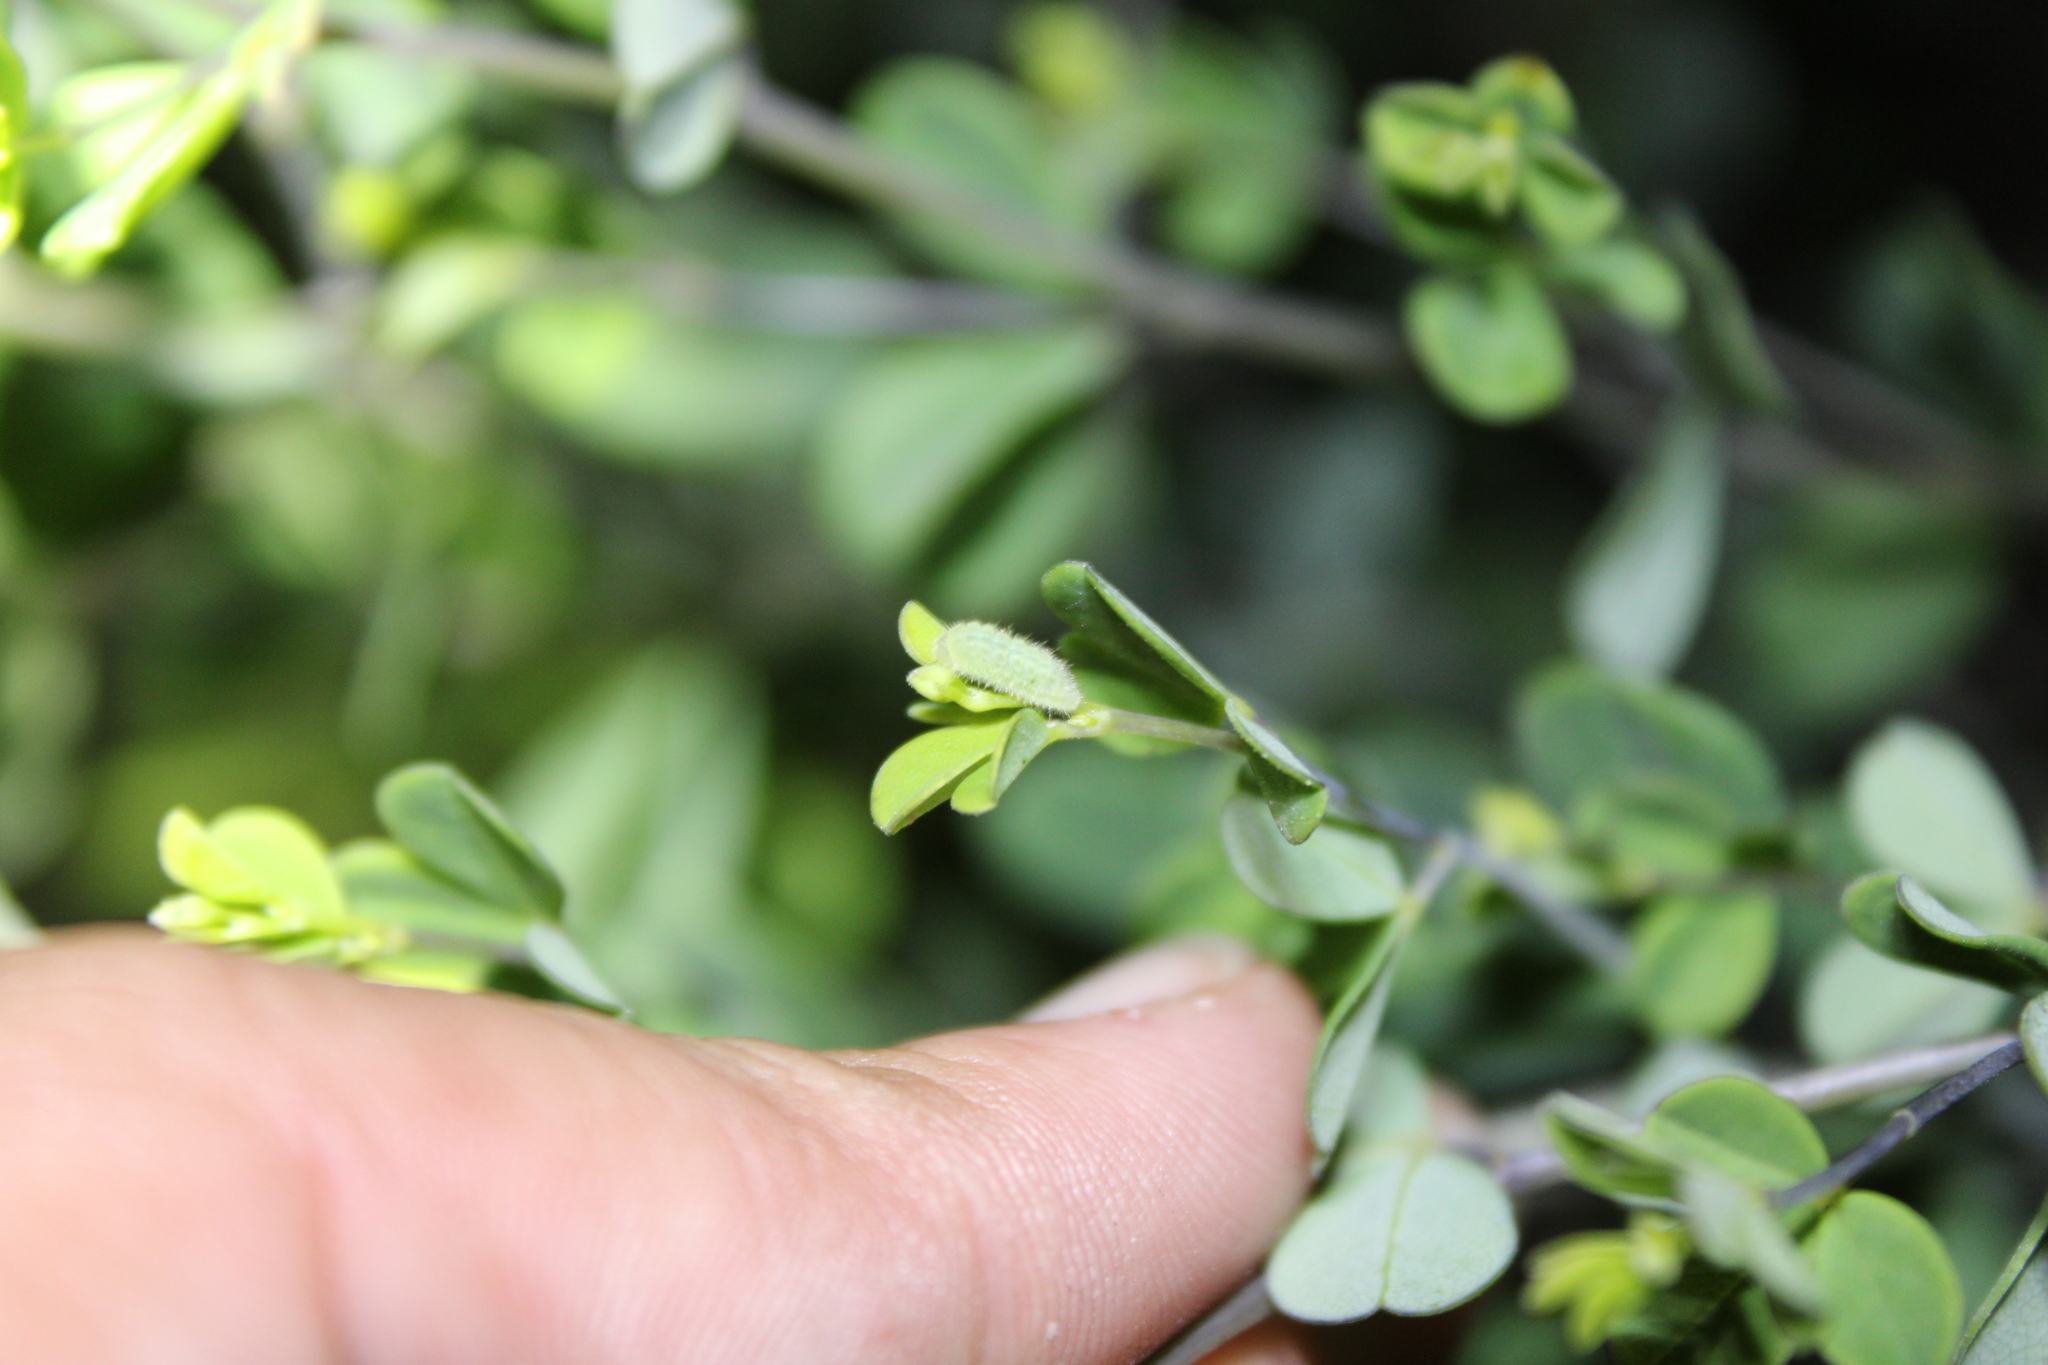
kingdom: Animalia
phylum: Arthropoda
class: Insecta
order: Lepidoptera
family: Lycaenidae
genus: Thecla
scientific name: Thecla irus
